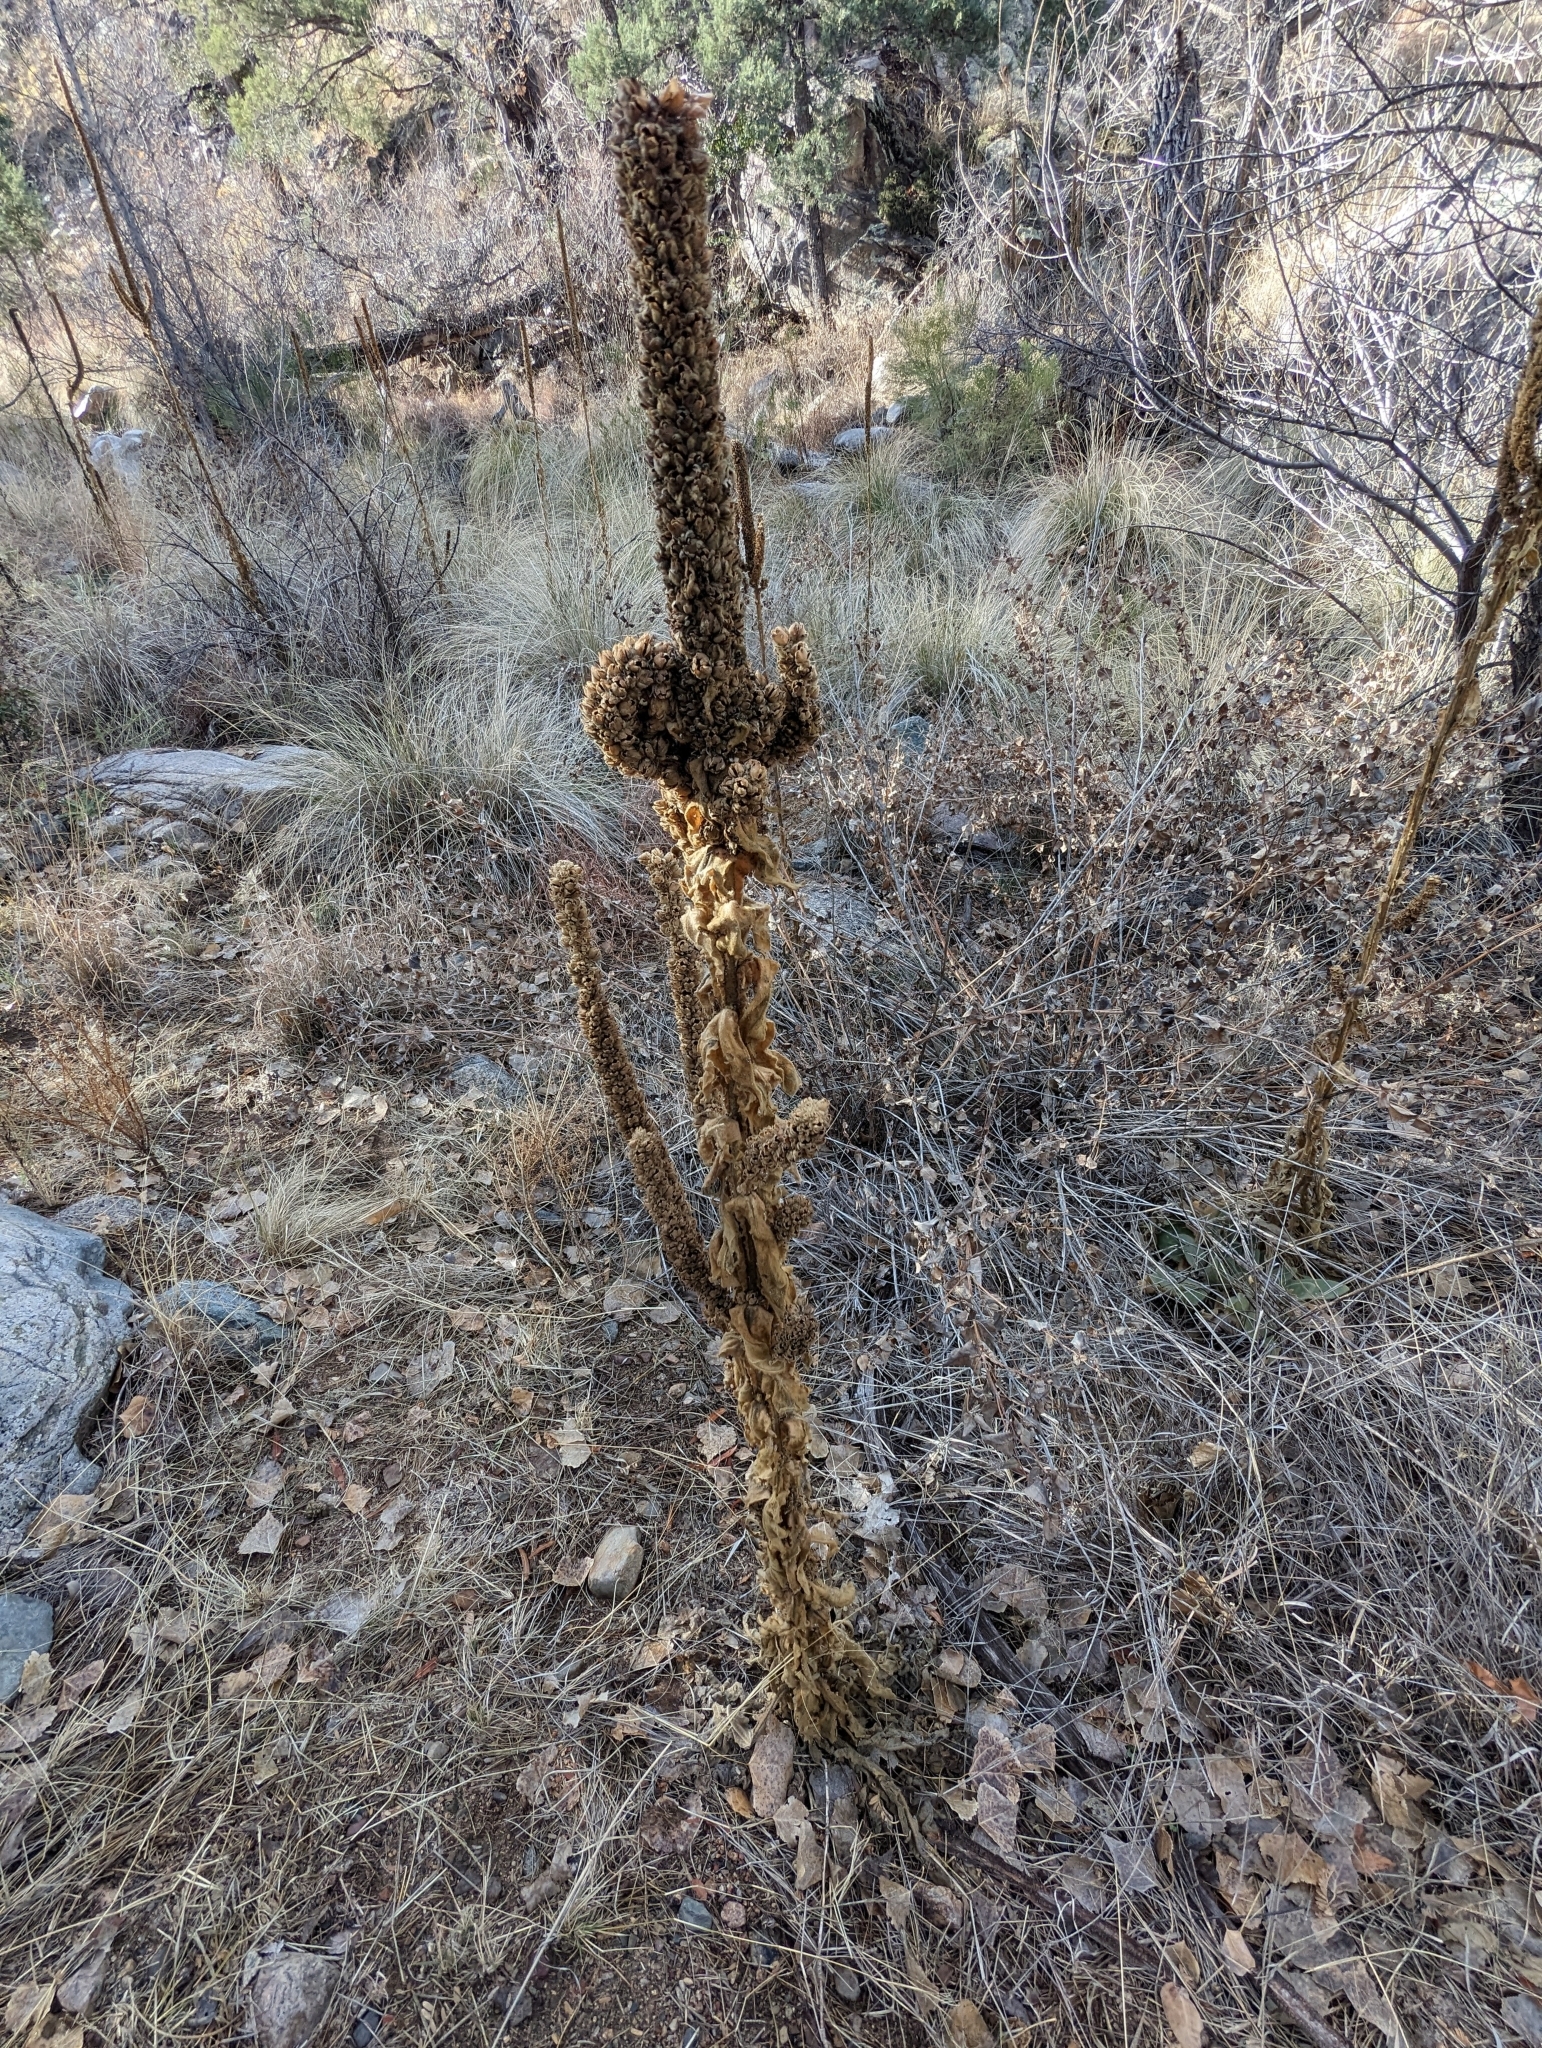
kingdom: Plantae
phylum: Tracheophyta
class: Magnoliopsida
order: Lamiales
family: Scrophulariaceae
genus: Verbascum
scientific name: Verbascum thapsus
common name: Common mullein
